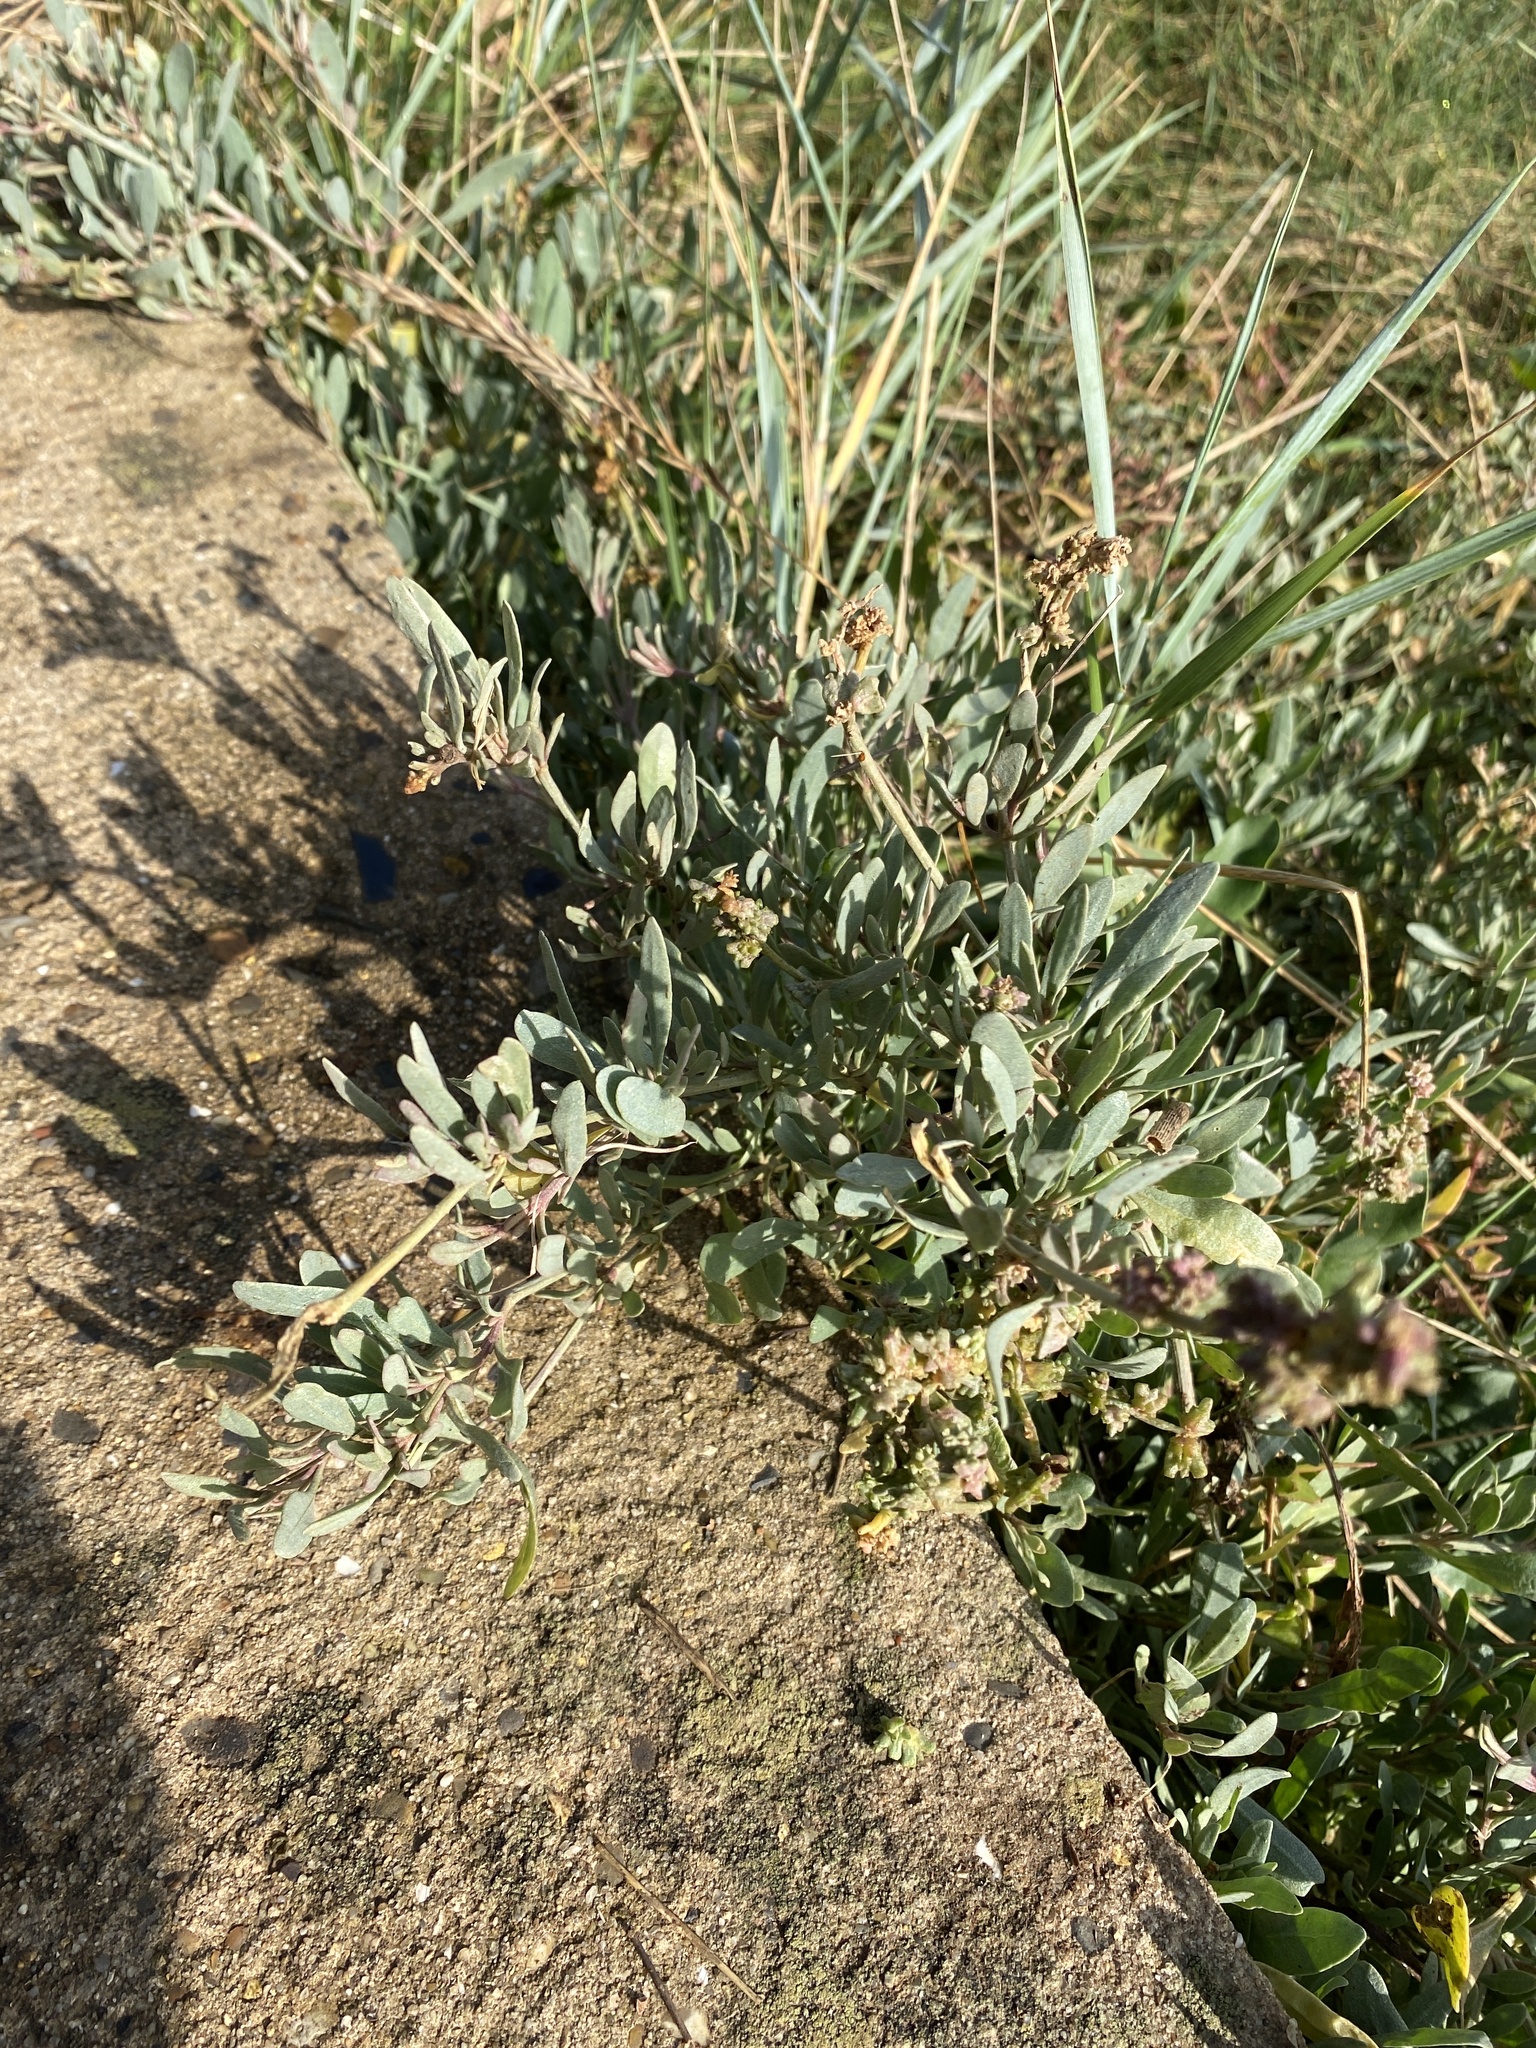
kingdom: Plantae
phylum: Tracheophyta
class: Magnoliopsida
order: Caryophyllales
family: Amaranthaceae
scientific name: Amaranthaceae
